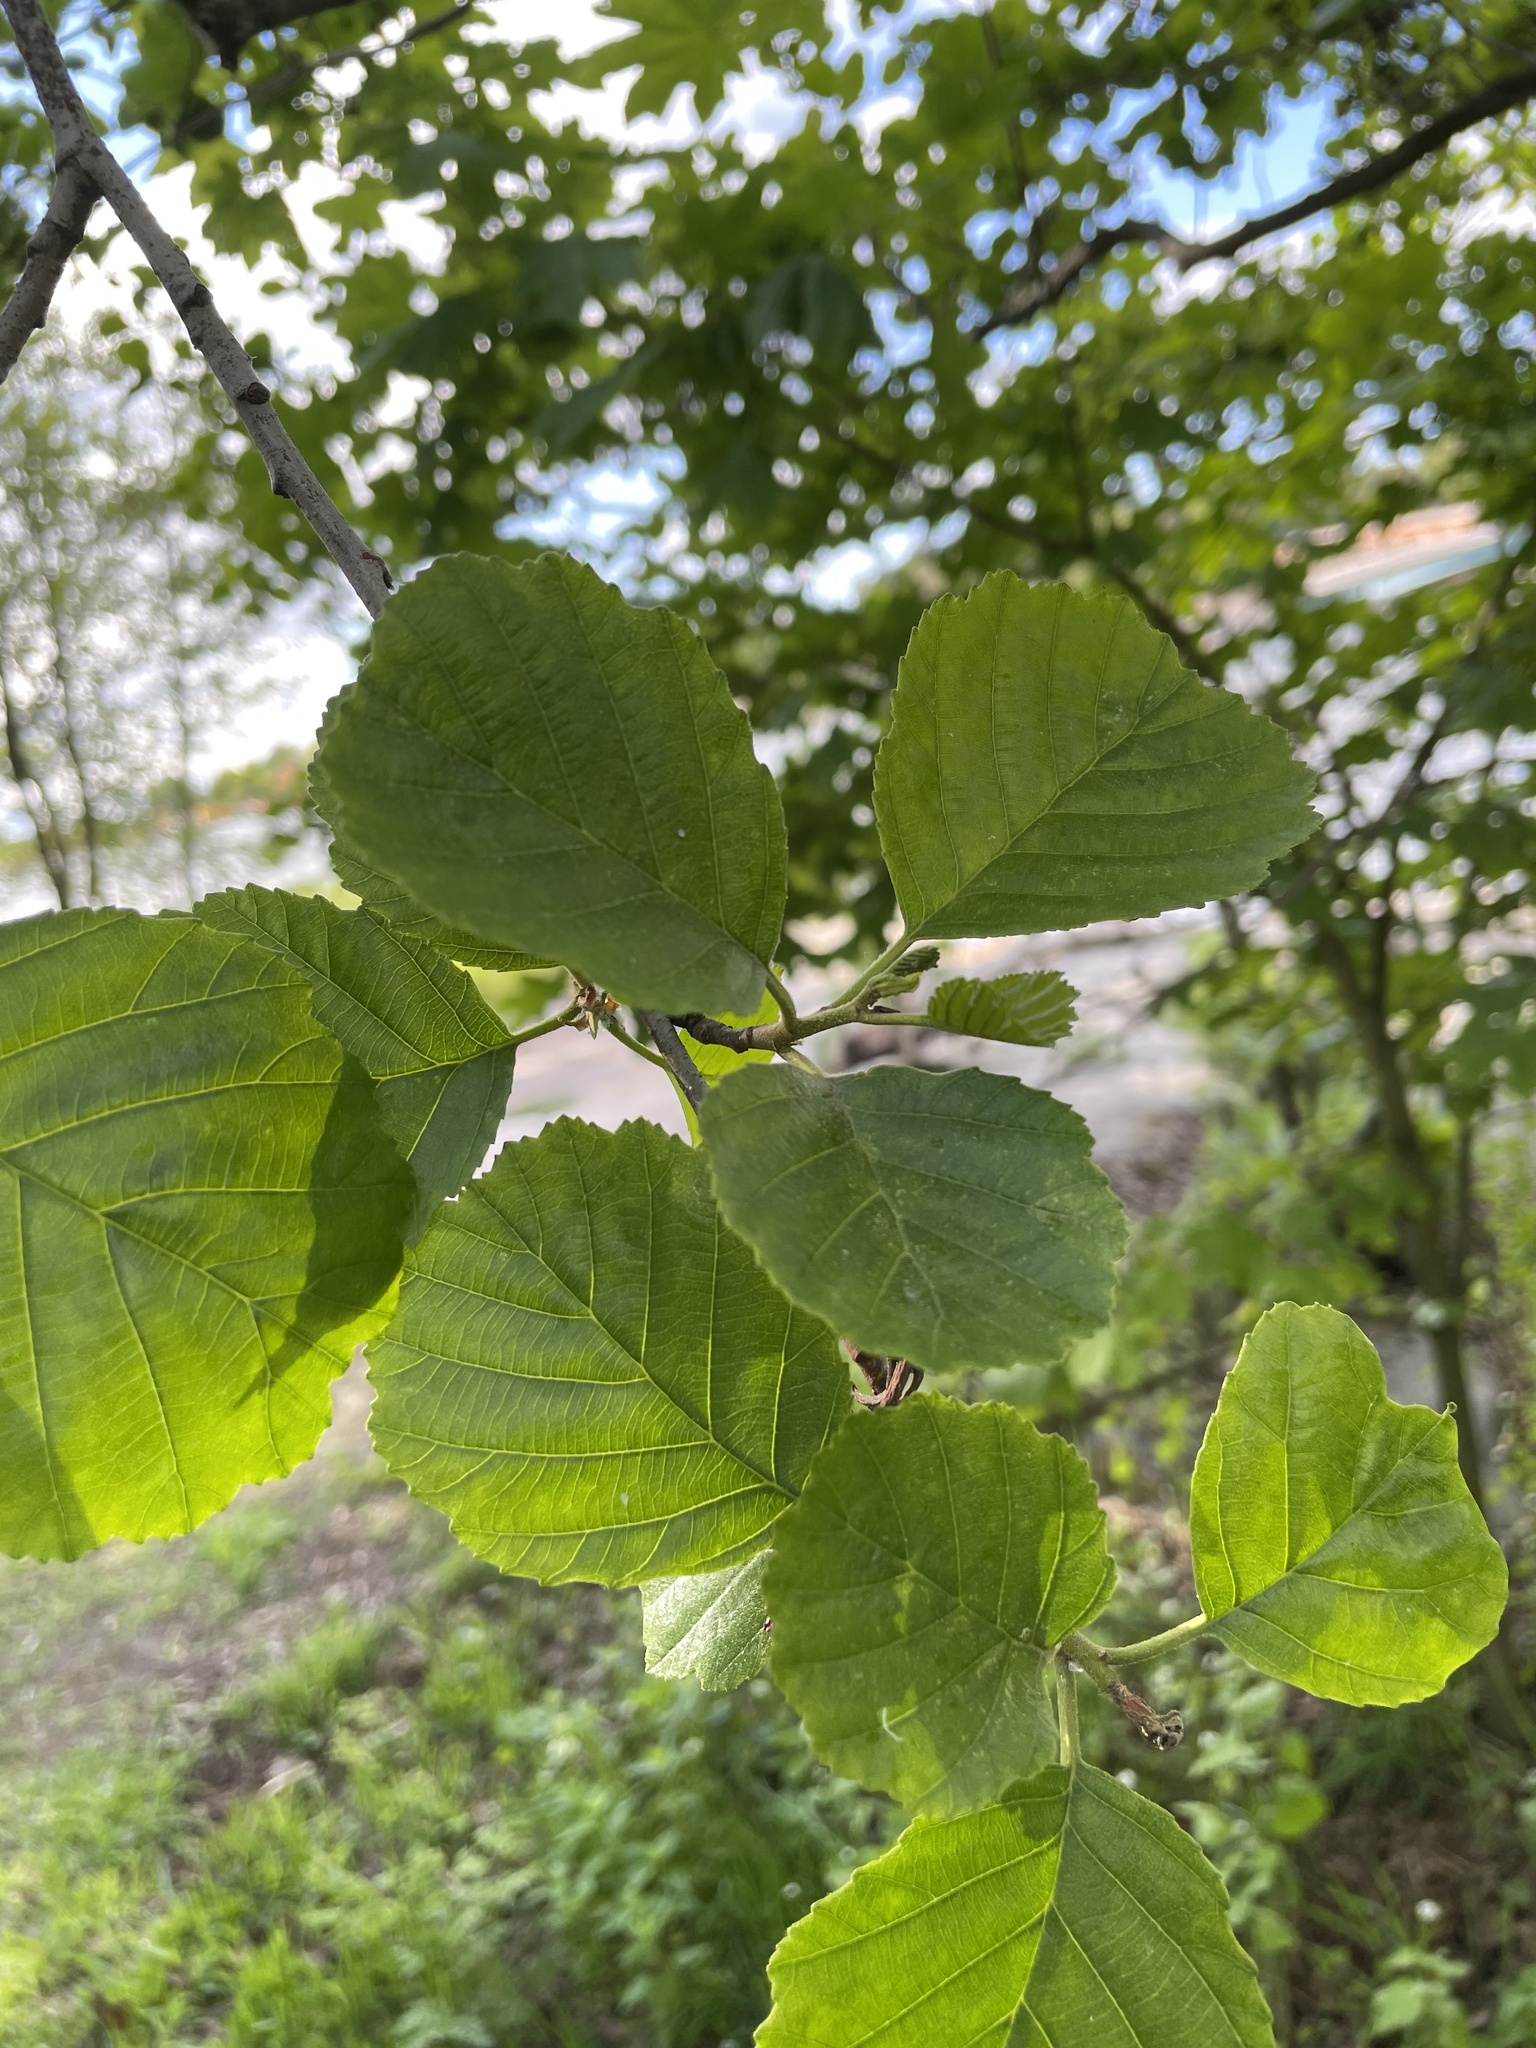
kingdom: Plantae
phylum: Tracheophyta
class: Magnoliopsida
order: Fagales
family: Betulaceae
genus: Alnus
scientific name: Alnus glutinosa
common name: Black alder
